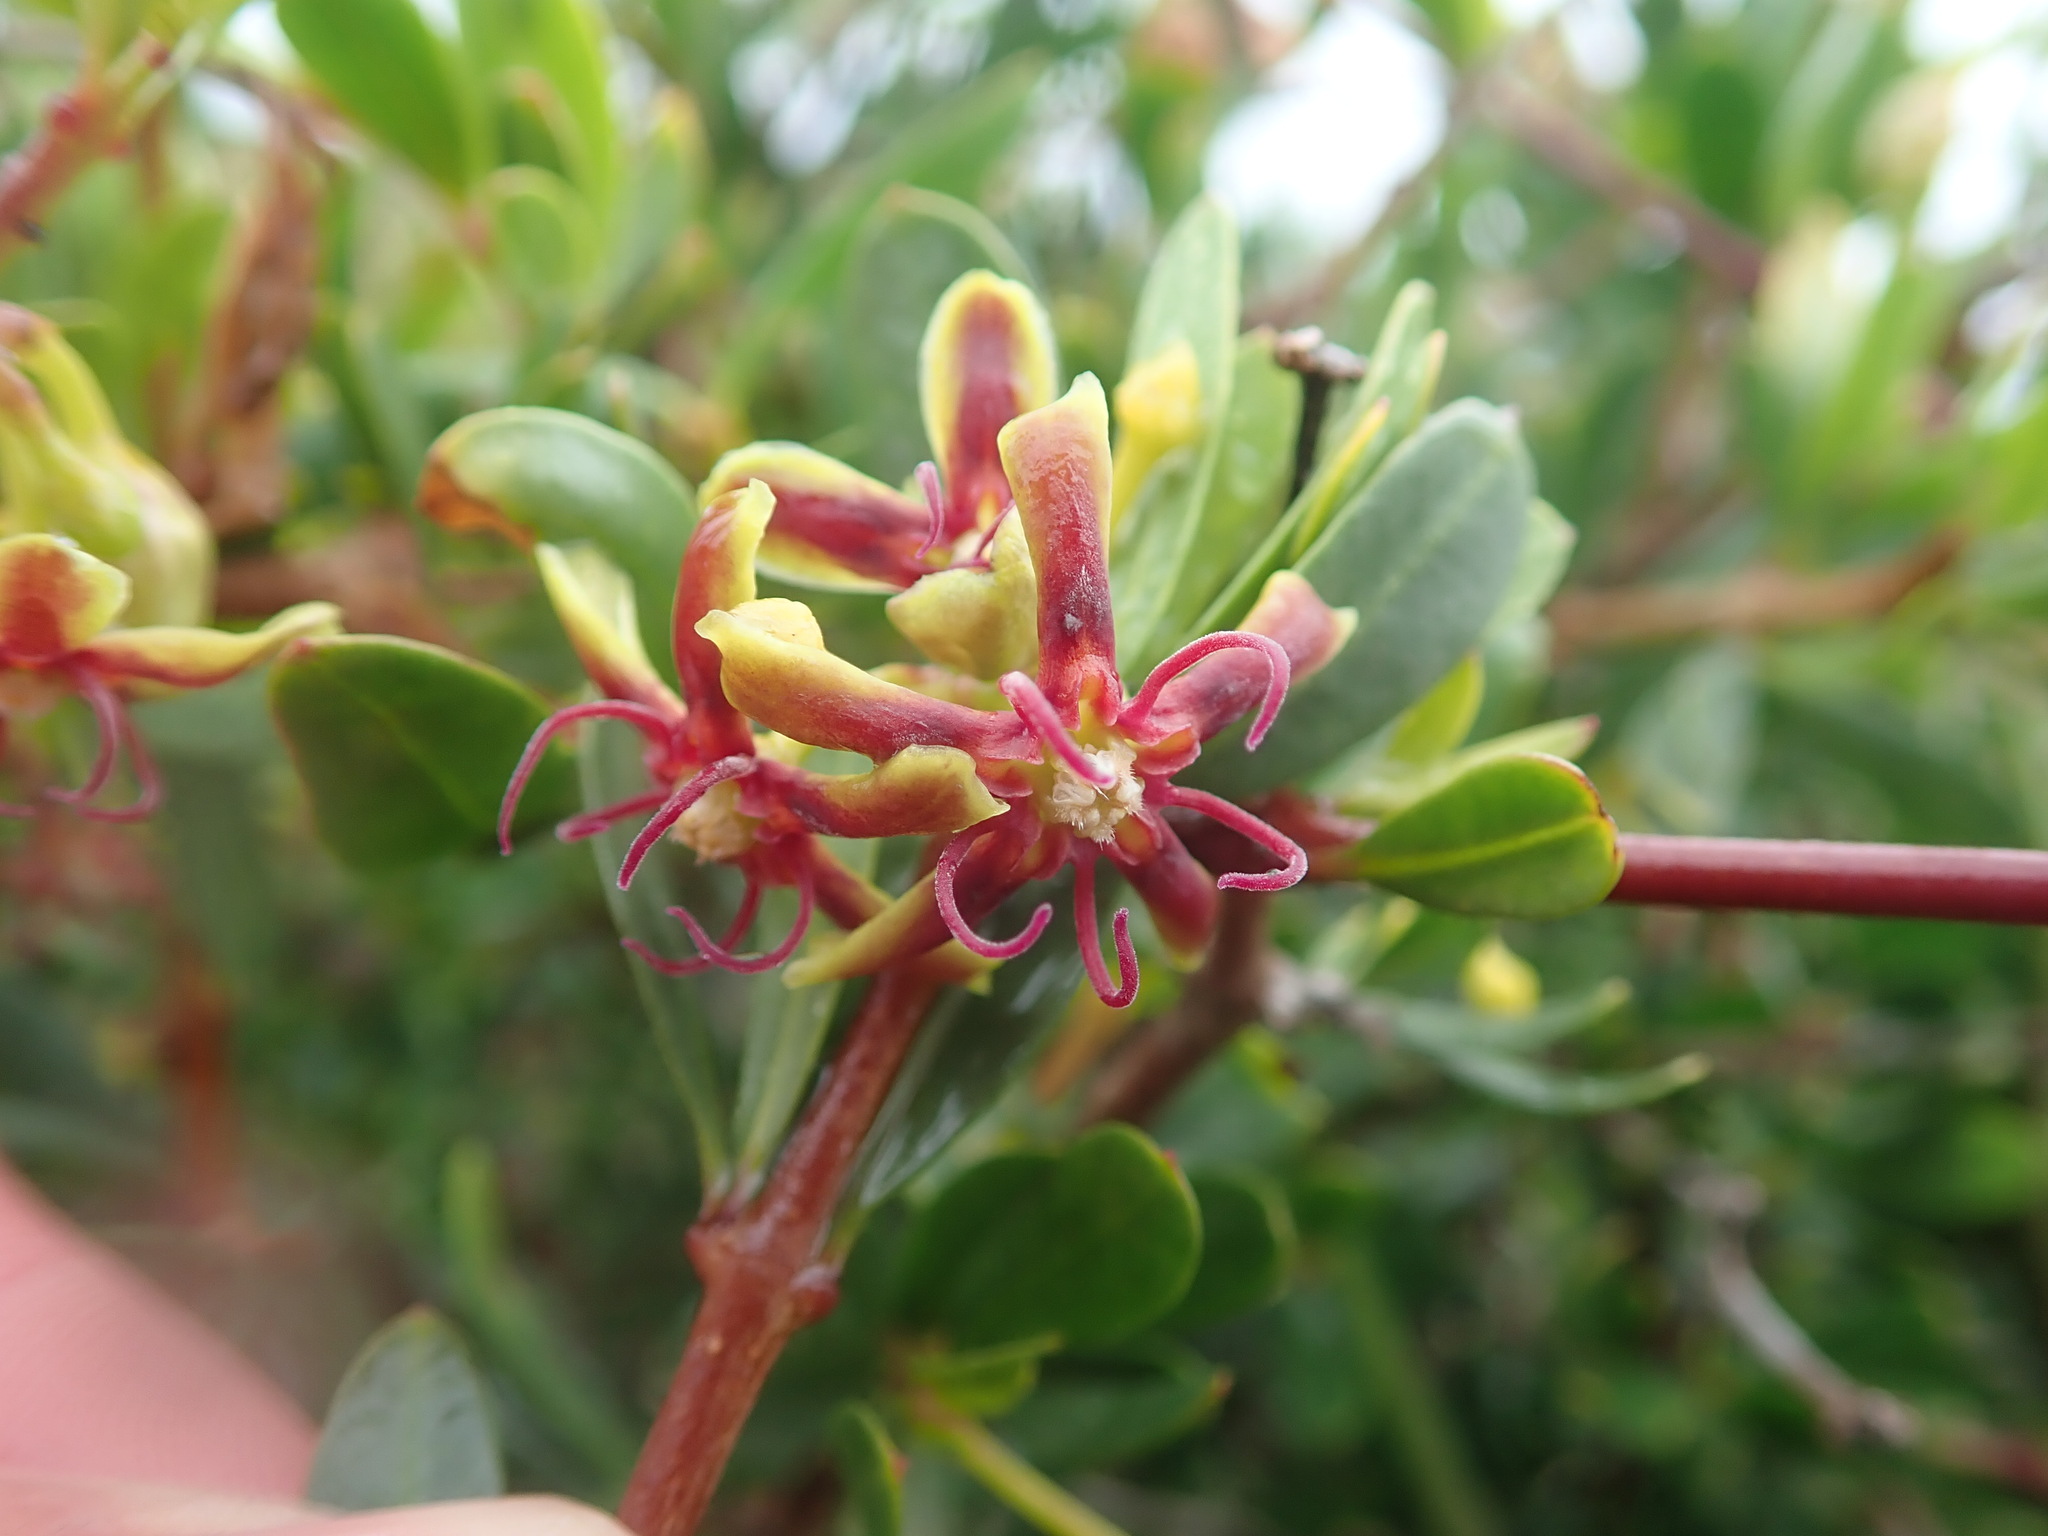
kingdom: Plantae
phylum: Tracheophyta
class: Magnoliopsida
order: Gentianales
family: Apocynaceae
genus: Periploca
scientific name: Periploca laevigata
